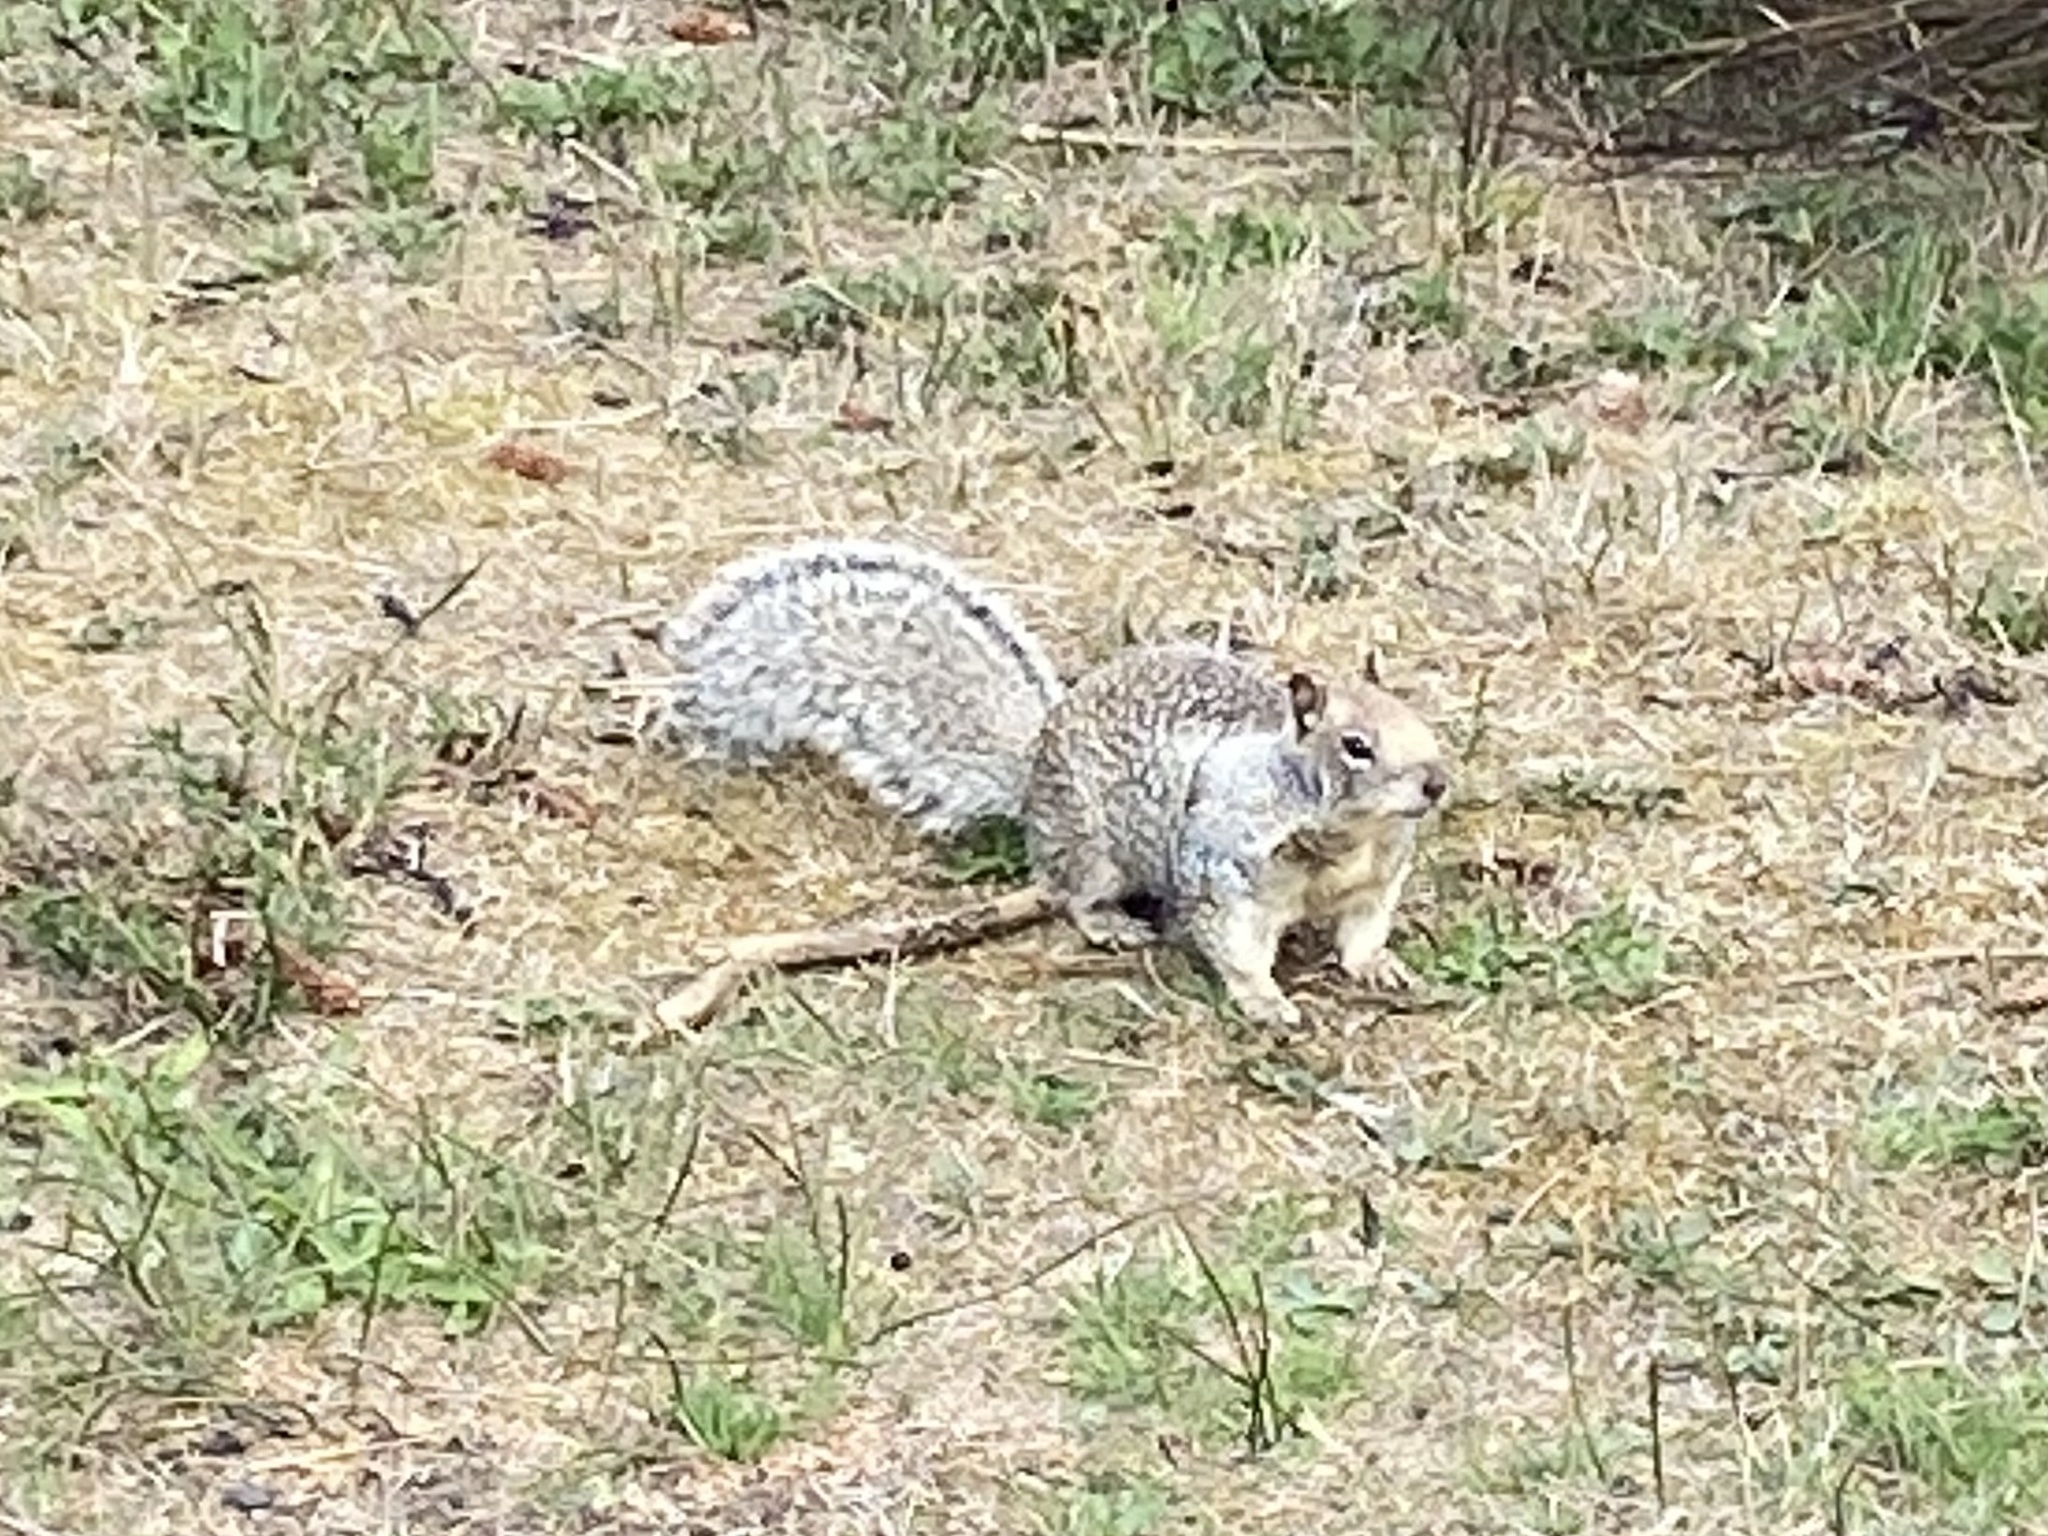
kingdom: Animalia
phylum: Chordata
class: Mammalia
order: Rodentia
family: Sciuridae
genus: Otospermophilus
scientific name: Otospermophilus beecheyi
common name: California ground squirrel
